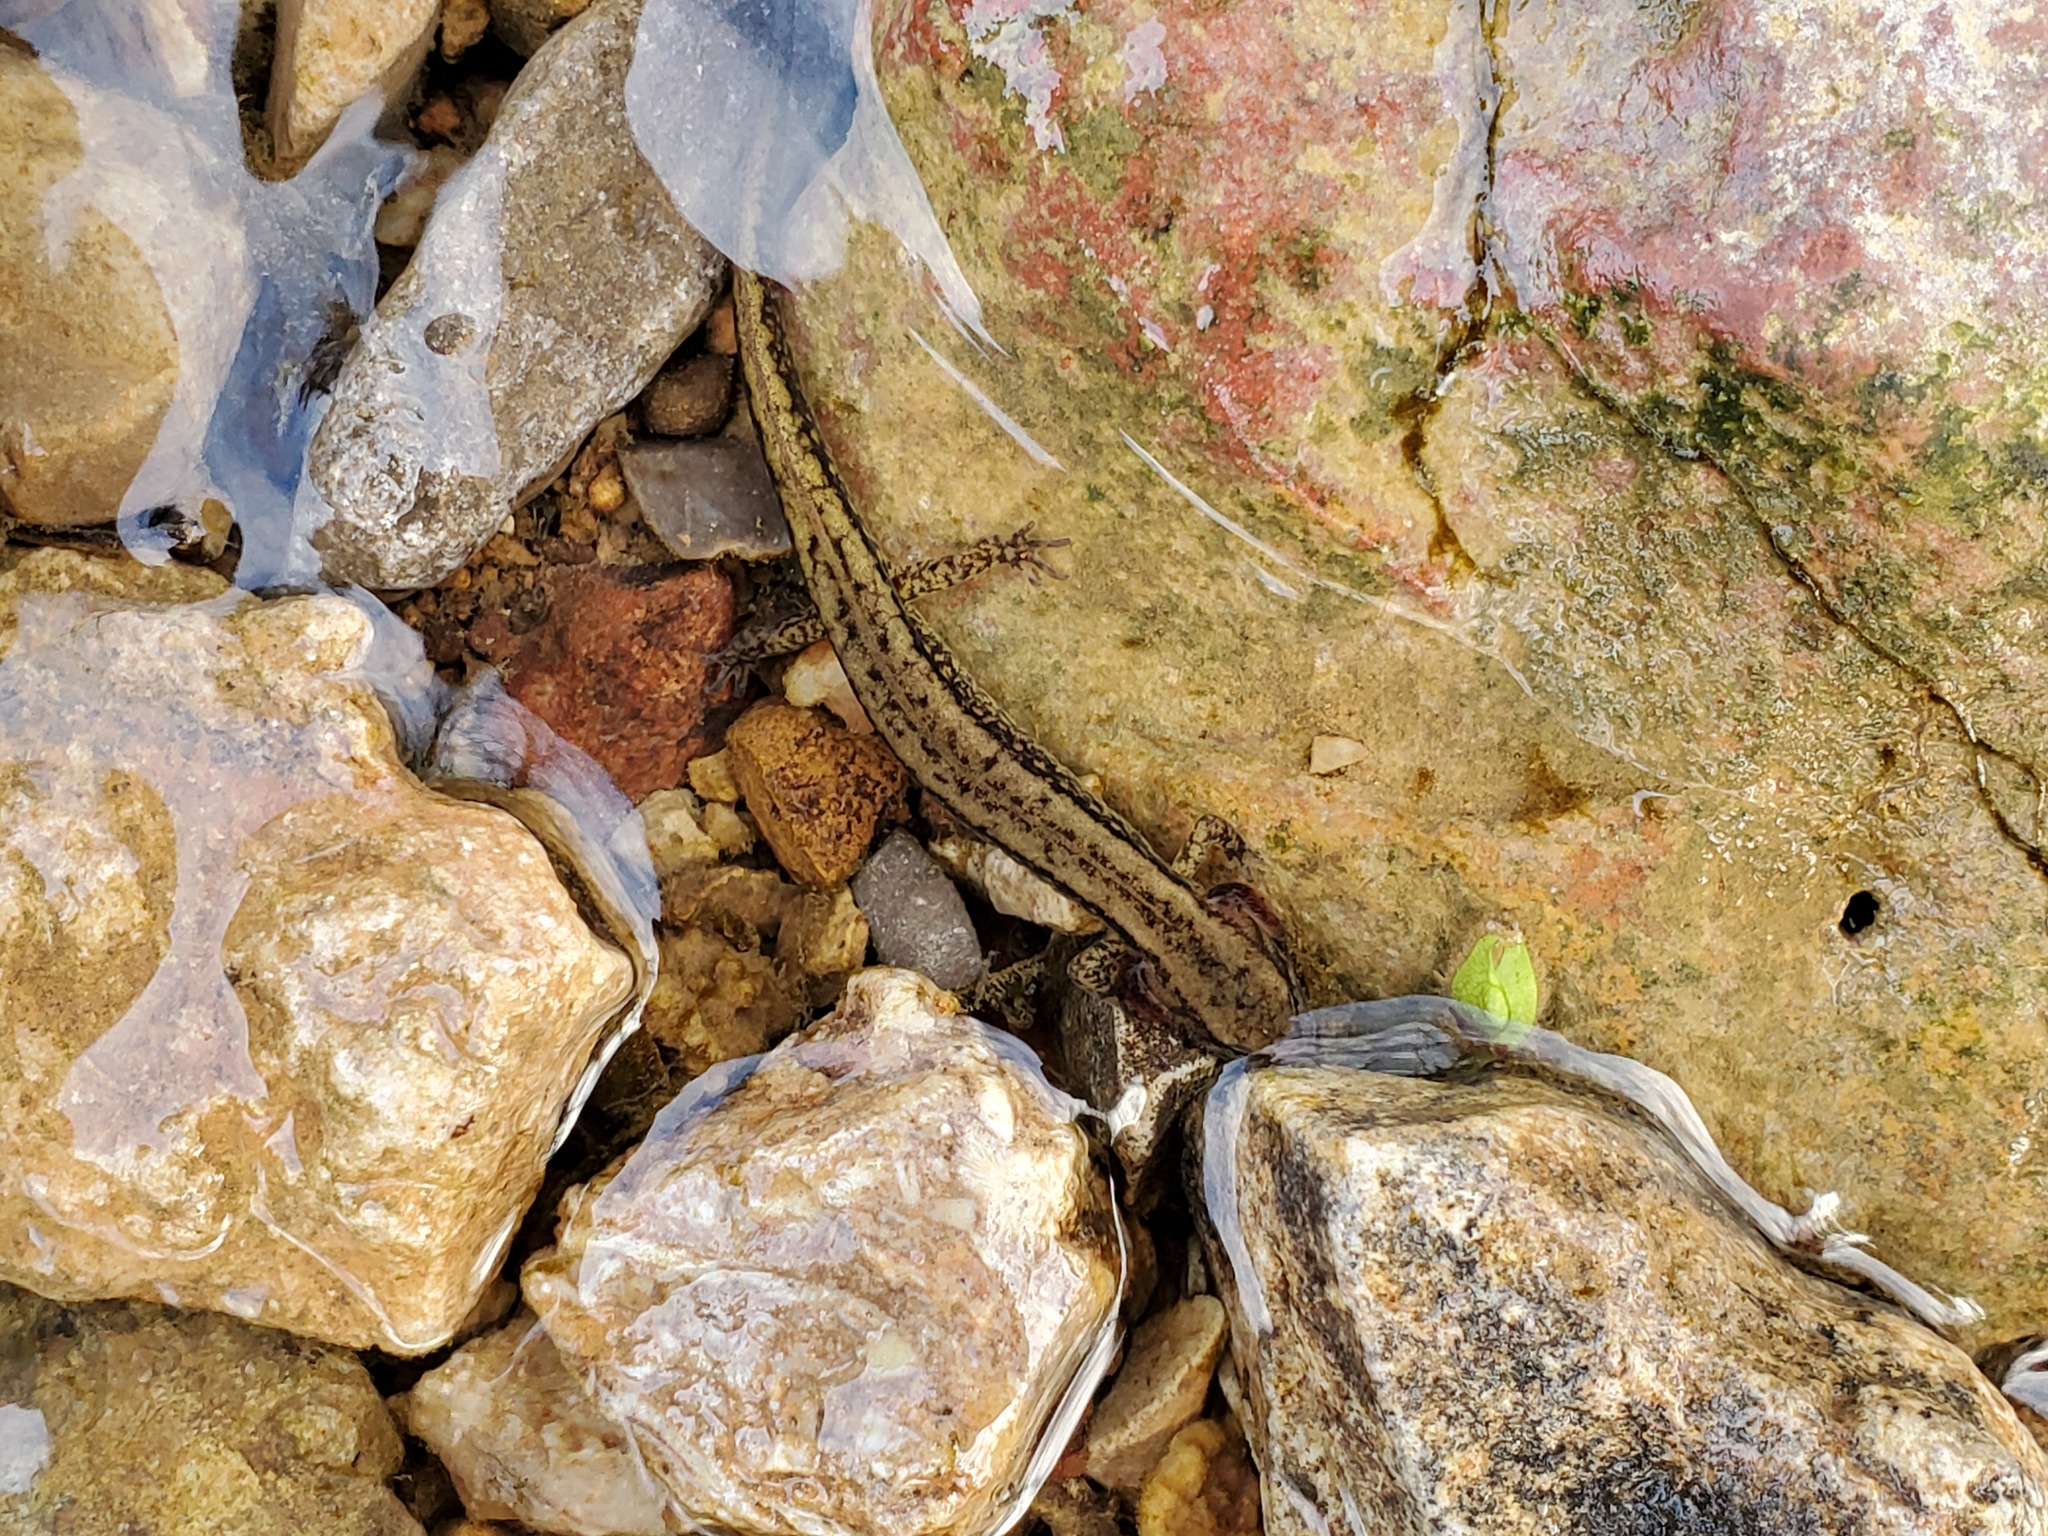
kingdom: Animalia
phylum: Chordata
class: Amphibia
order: Caudata
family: Plethodontidae
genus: Eurycea
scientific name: Eurycea cirrigera
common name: Southern two-lined salamander
